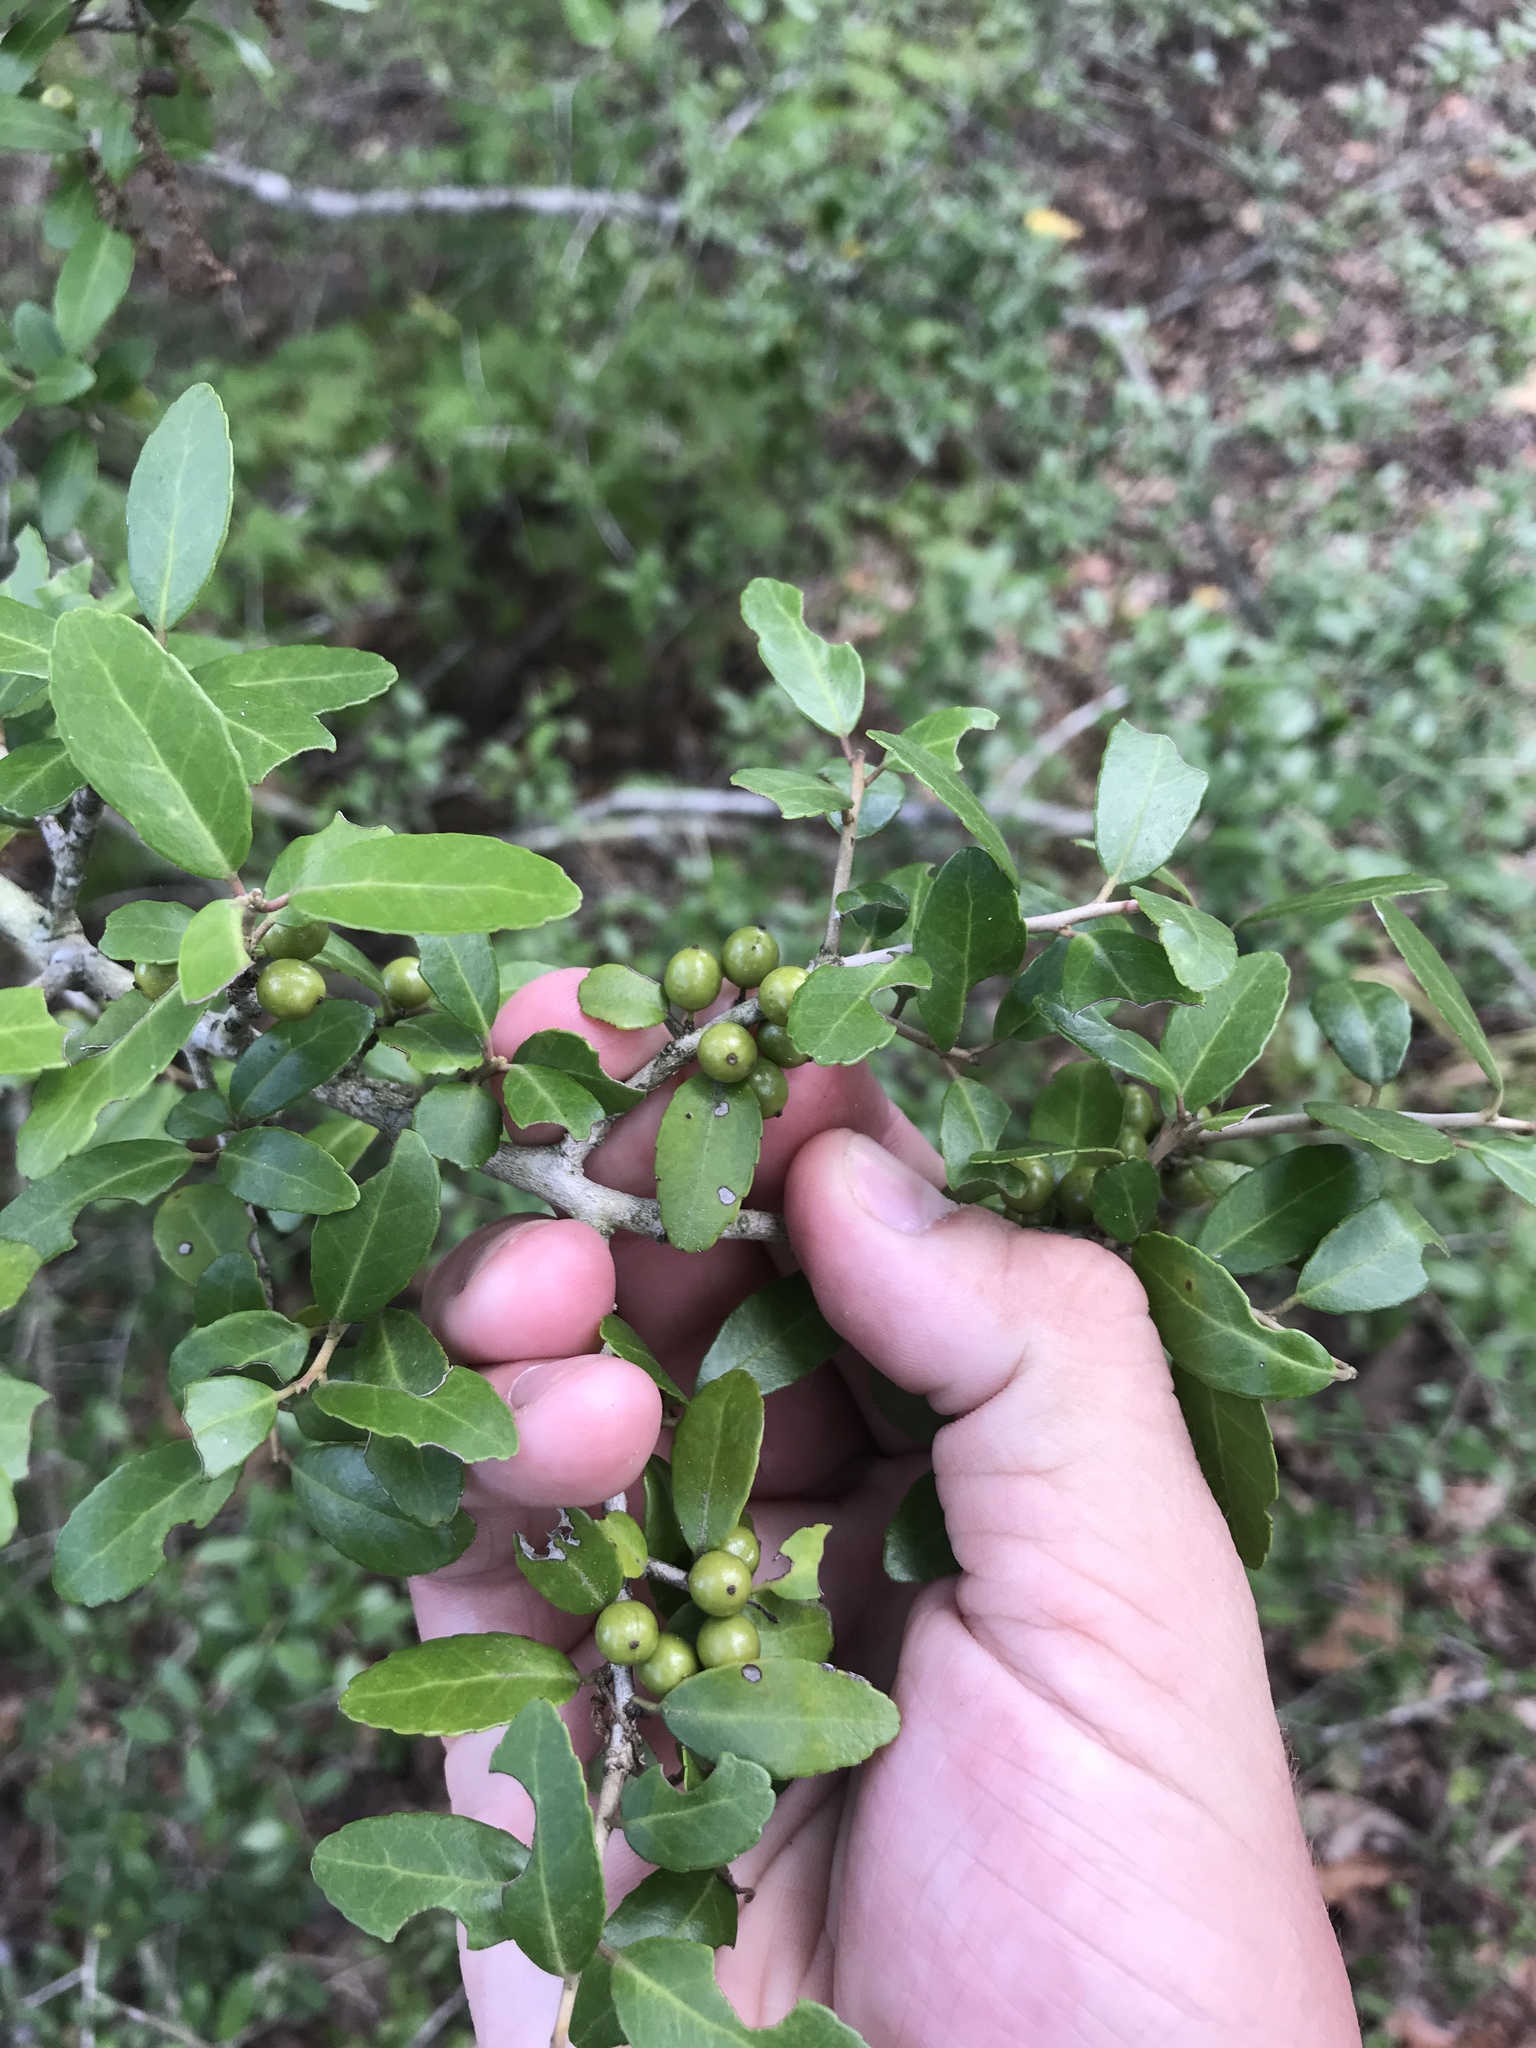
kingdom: Plantae
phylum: Tracheophyta
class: Magnoliopsida
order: Aquifoliales
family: Aquifoliaceae
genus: Ilex
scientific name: Ilex vomitoria
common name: Yaupon holly
